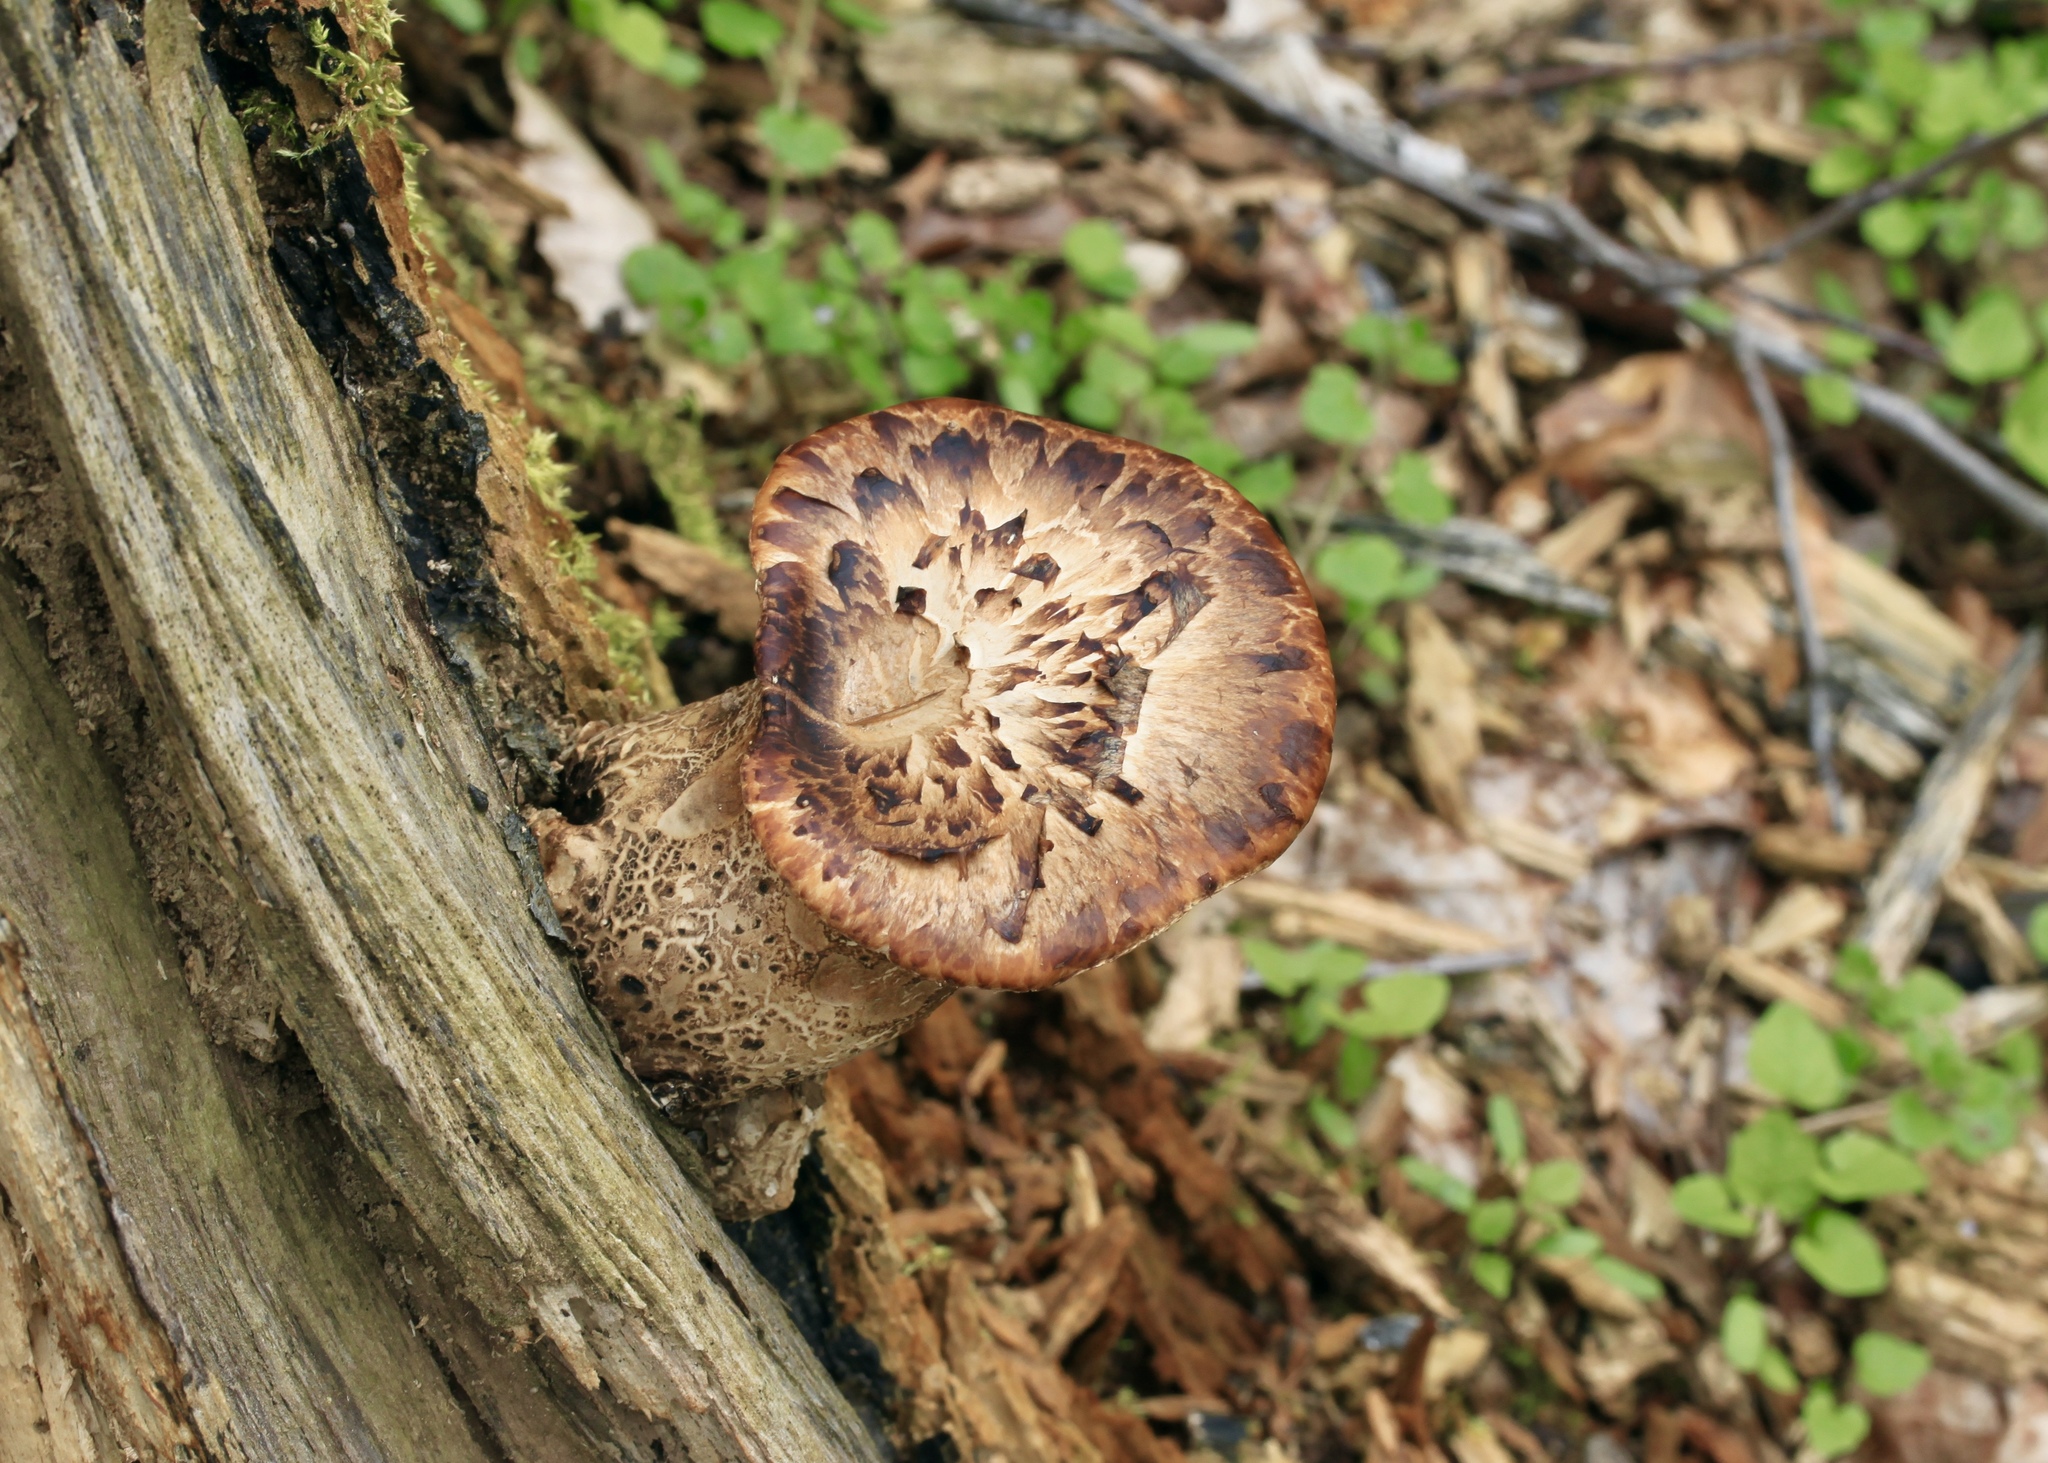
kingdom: Fungi
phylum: Basidiomycota
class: Agaricomycetes
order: Polyporales
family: Polyporaceae
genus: Cerioporus
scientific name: Cerioporus squamosus
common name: Dryad's saddle
